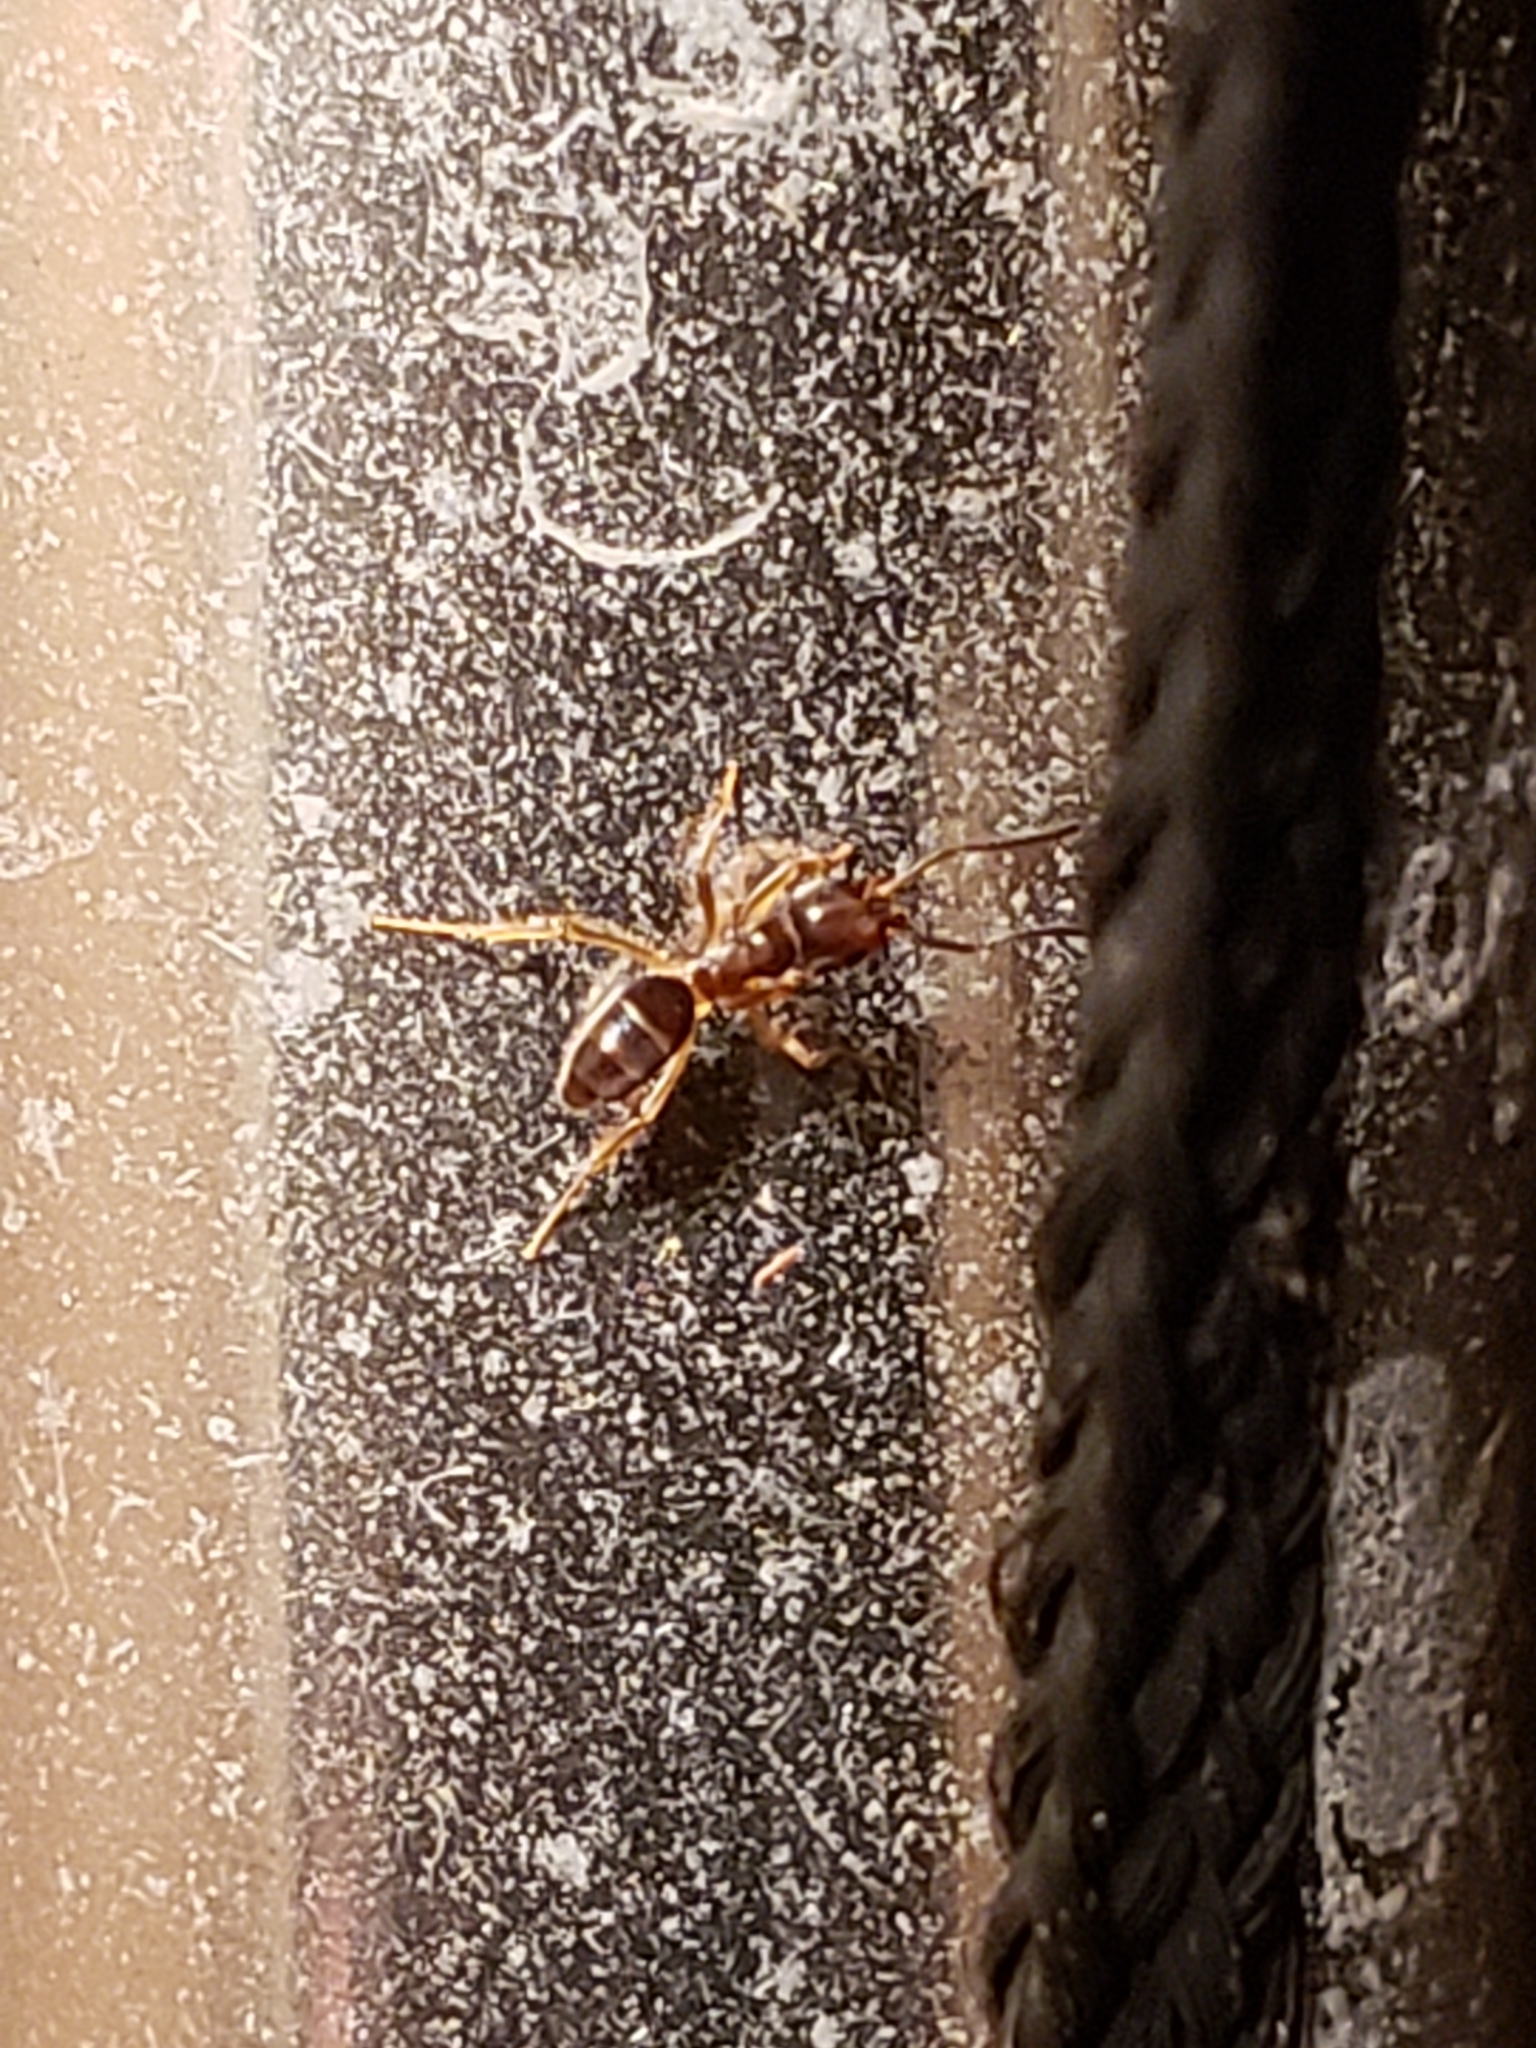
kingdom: Animalia
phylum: Arthropoda
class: Insecta
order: Hymenoptera
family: Formicidae
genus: Tapinoma
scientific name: Tapinoma sessile
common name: Odorous house ant
